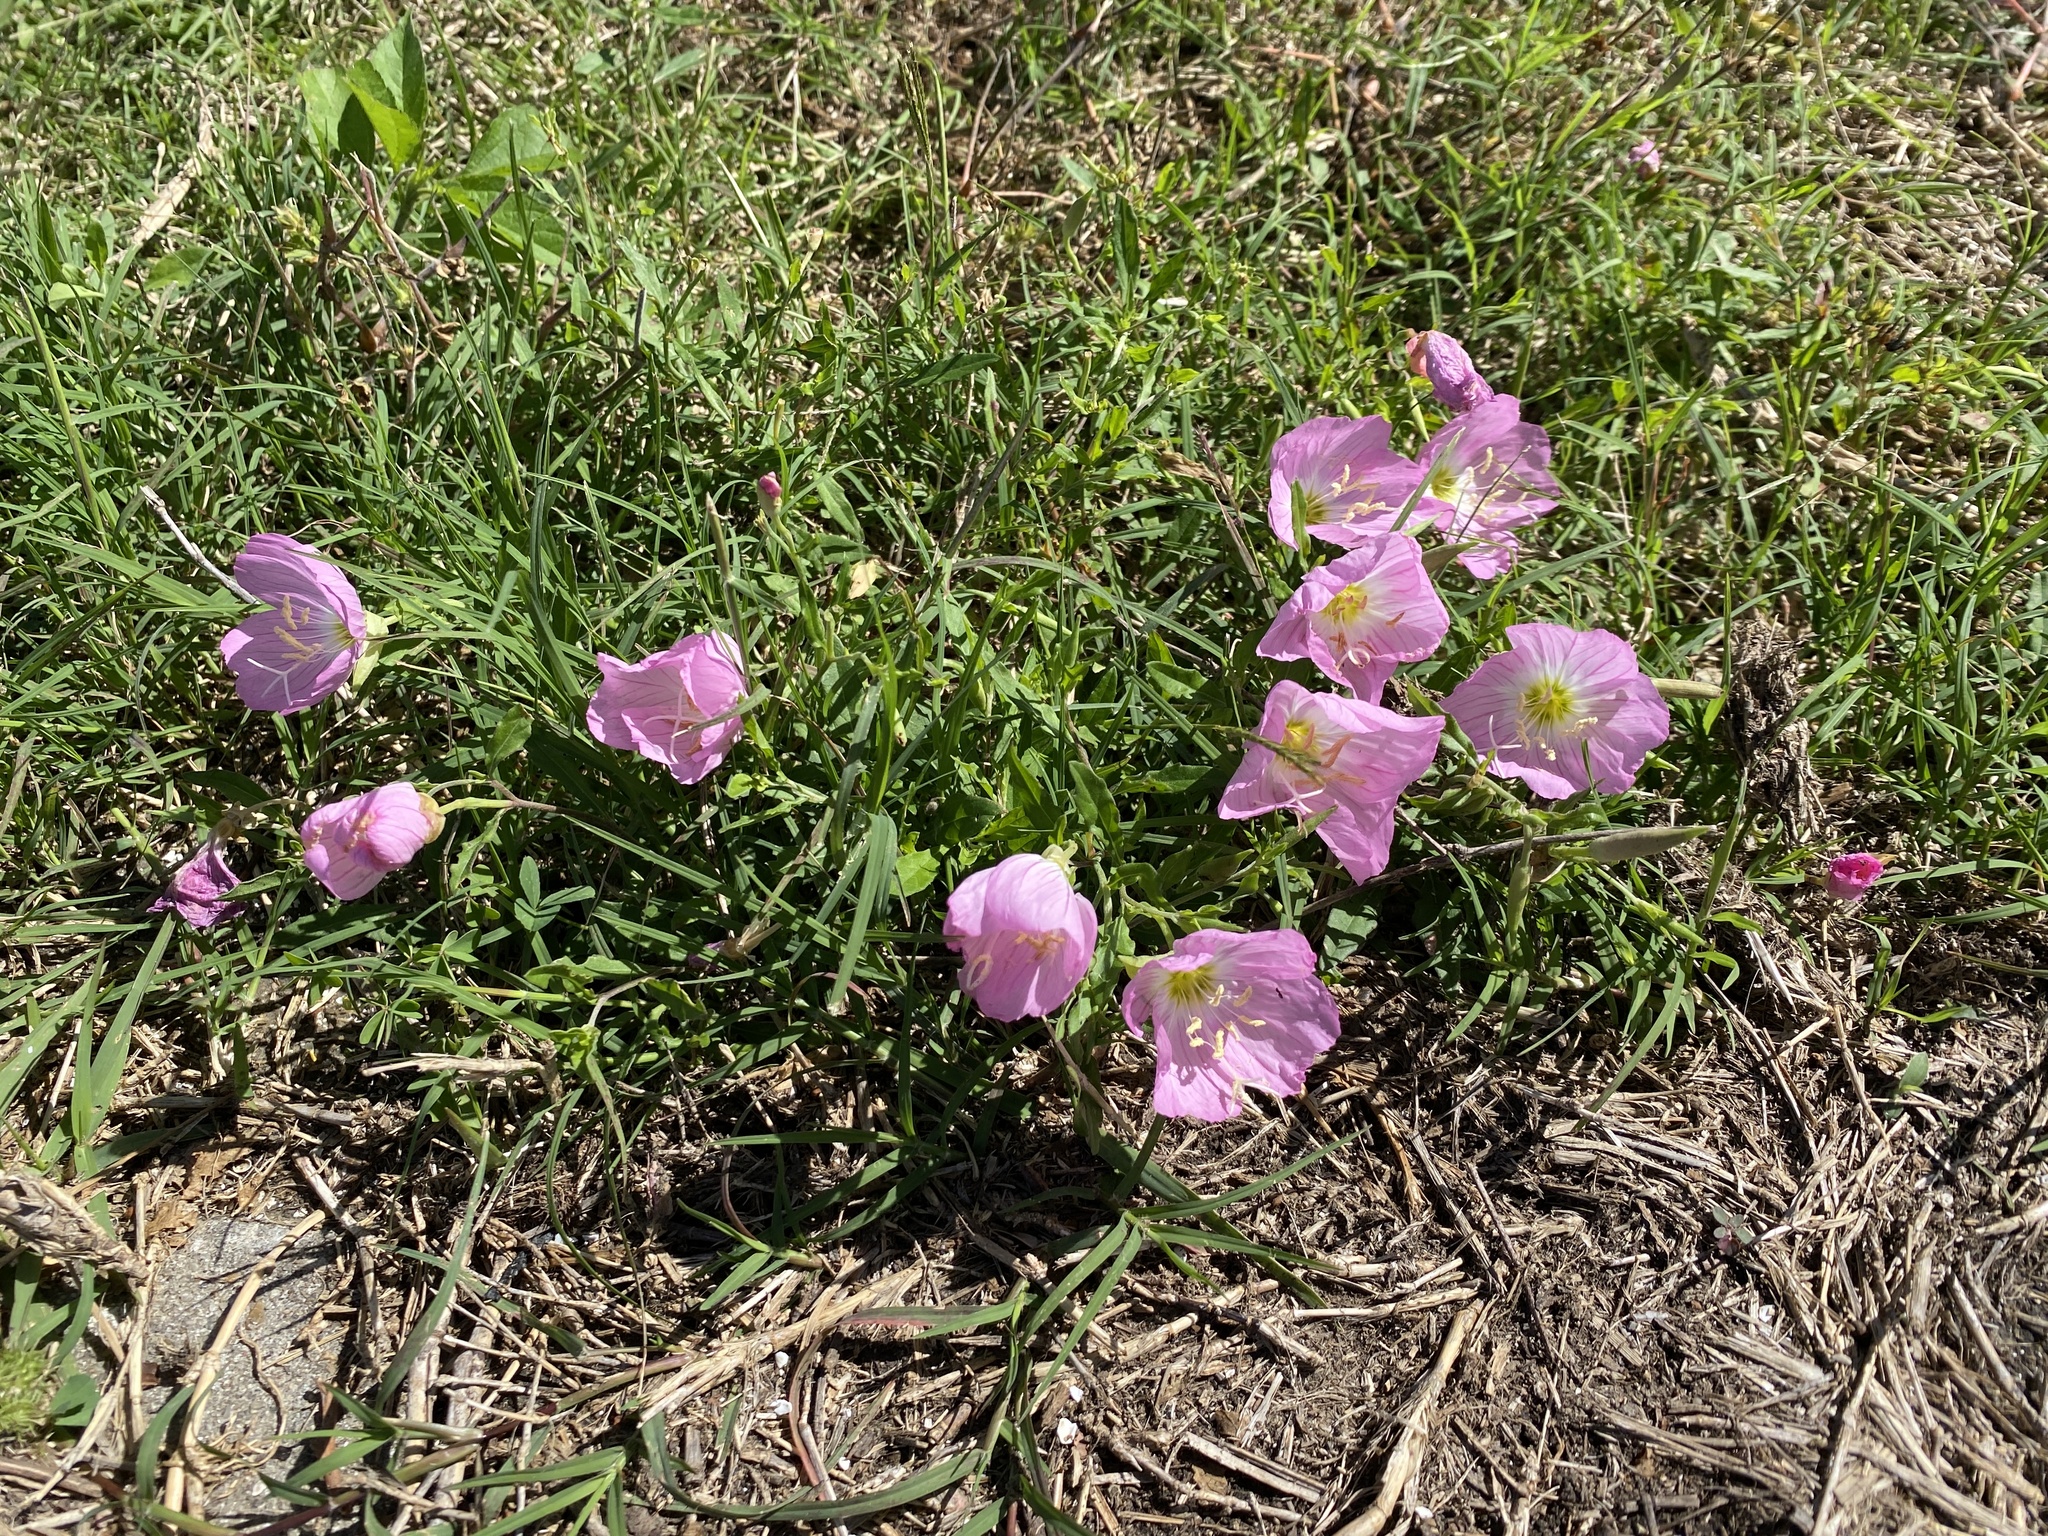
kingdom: Plantae
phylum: Tracheophyta
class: Magnoliopsida
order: Myrtales
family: Onagraceae
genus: Oenothera
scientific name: Oenothera speciosa
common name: White evening-primrose
